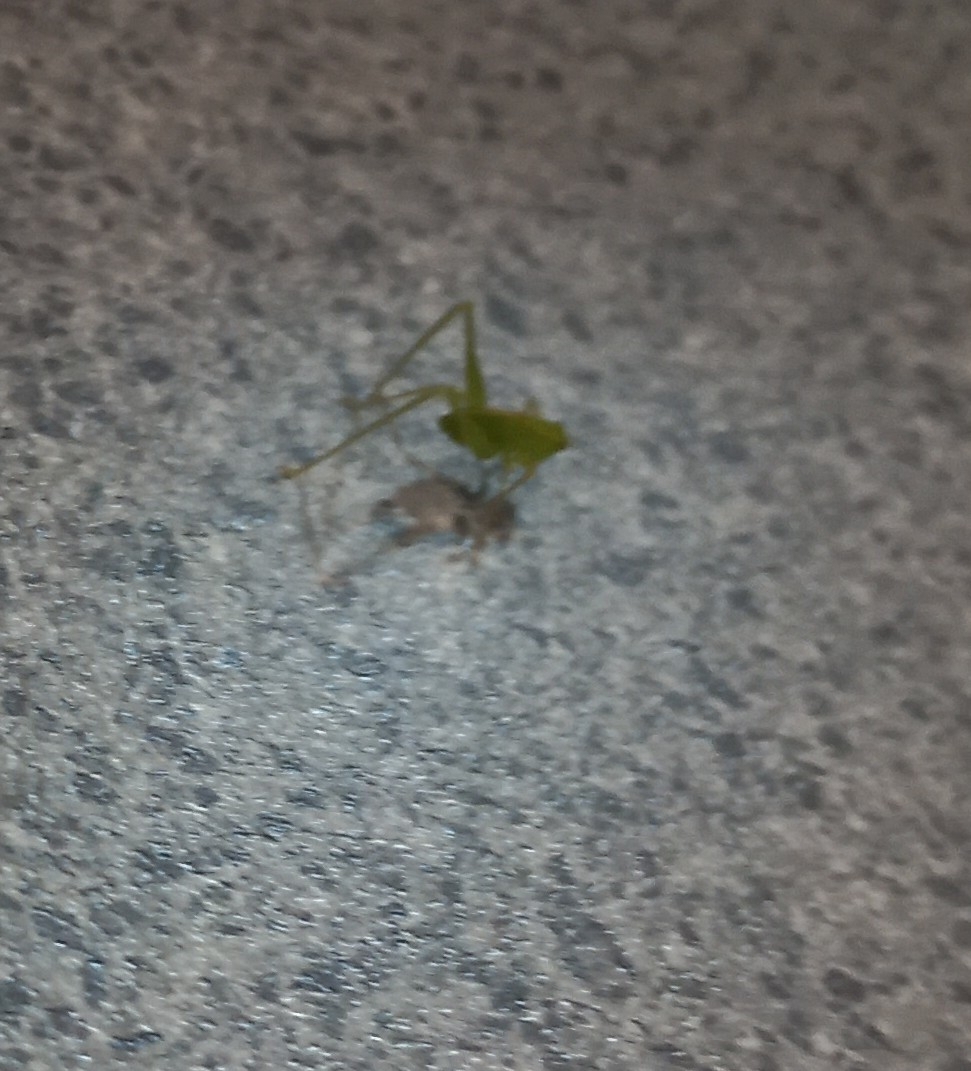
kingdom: Animalia
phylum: Arthropoda
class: Insecta
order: Orthoptera
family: Tettigoniidae
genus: Caedicia
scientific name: Caedicia simplex
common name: Common garden katydid
